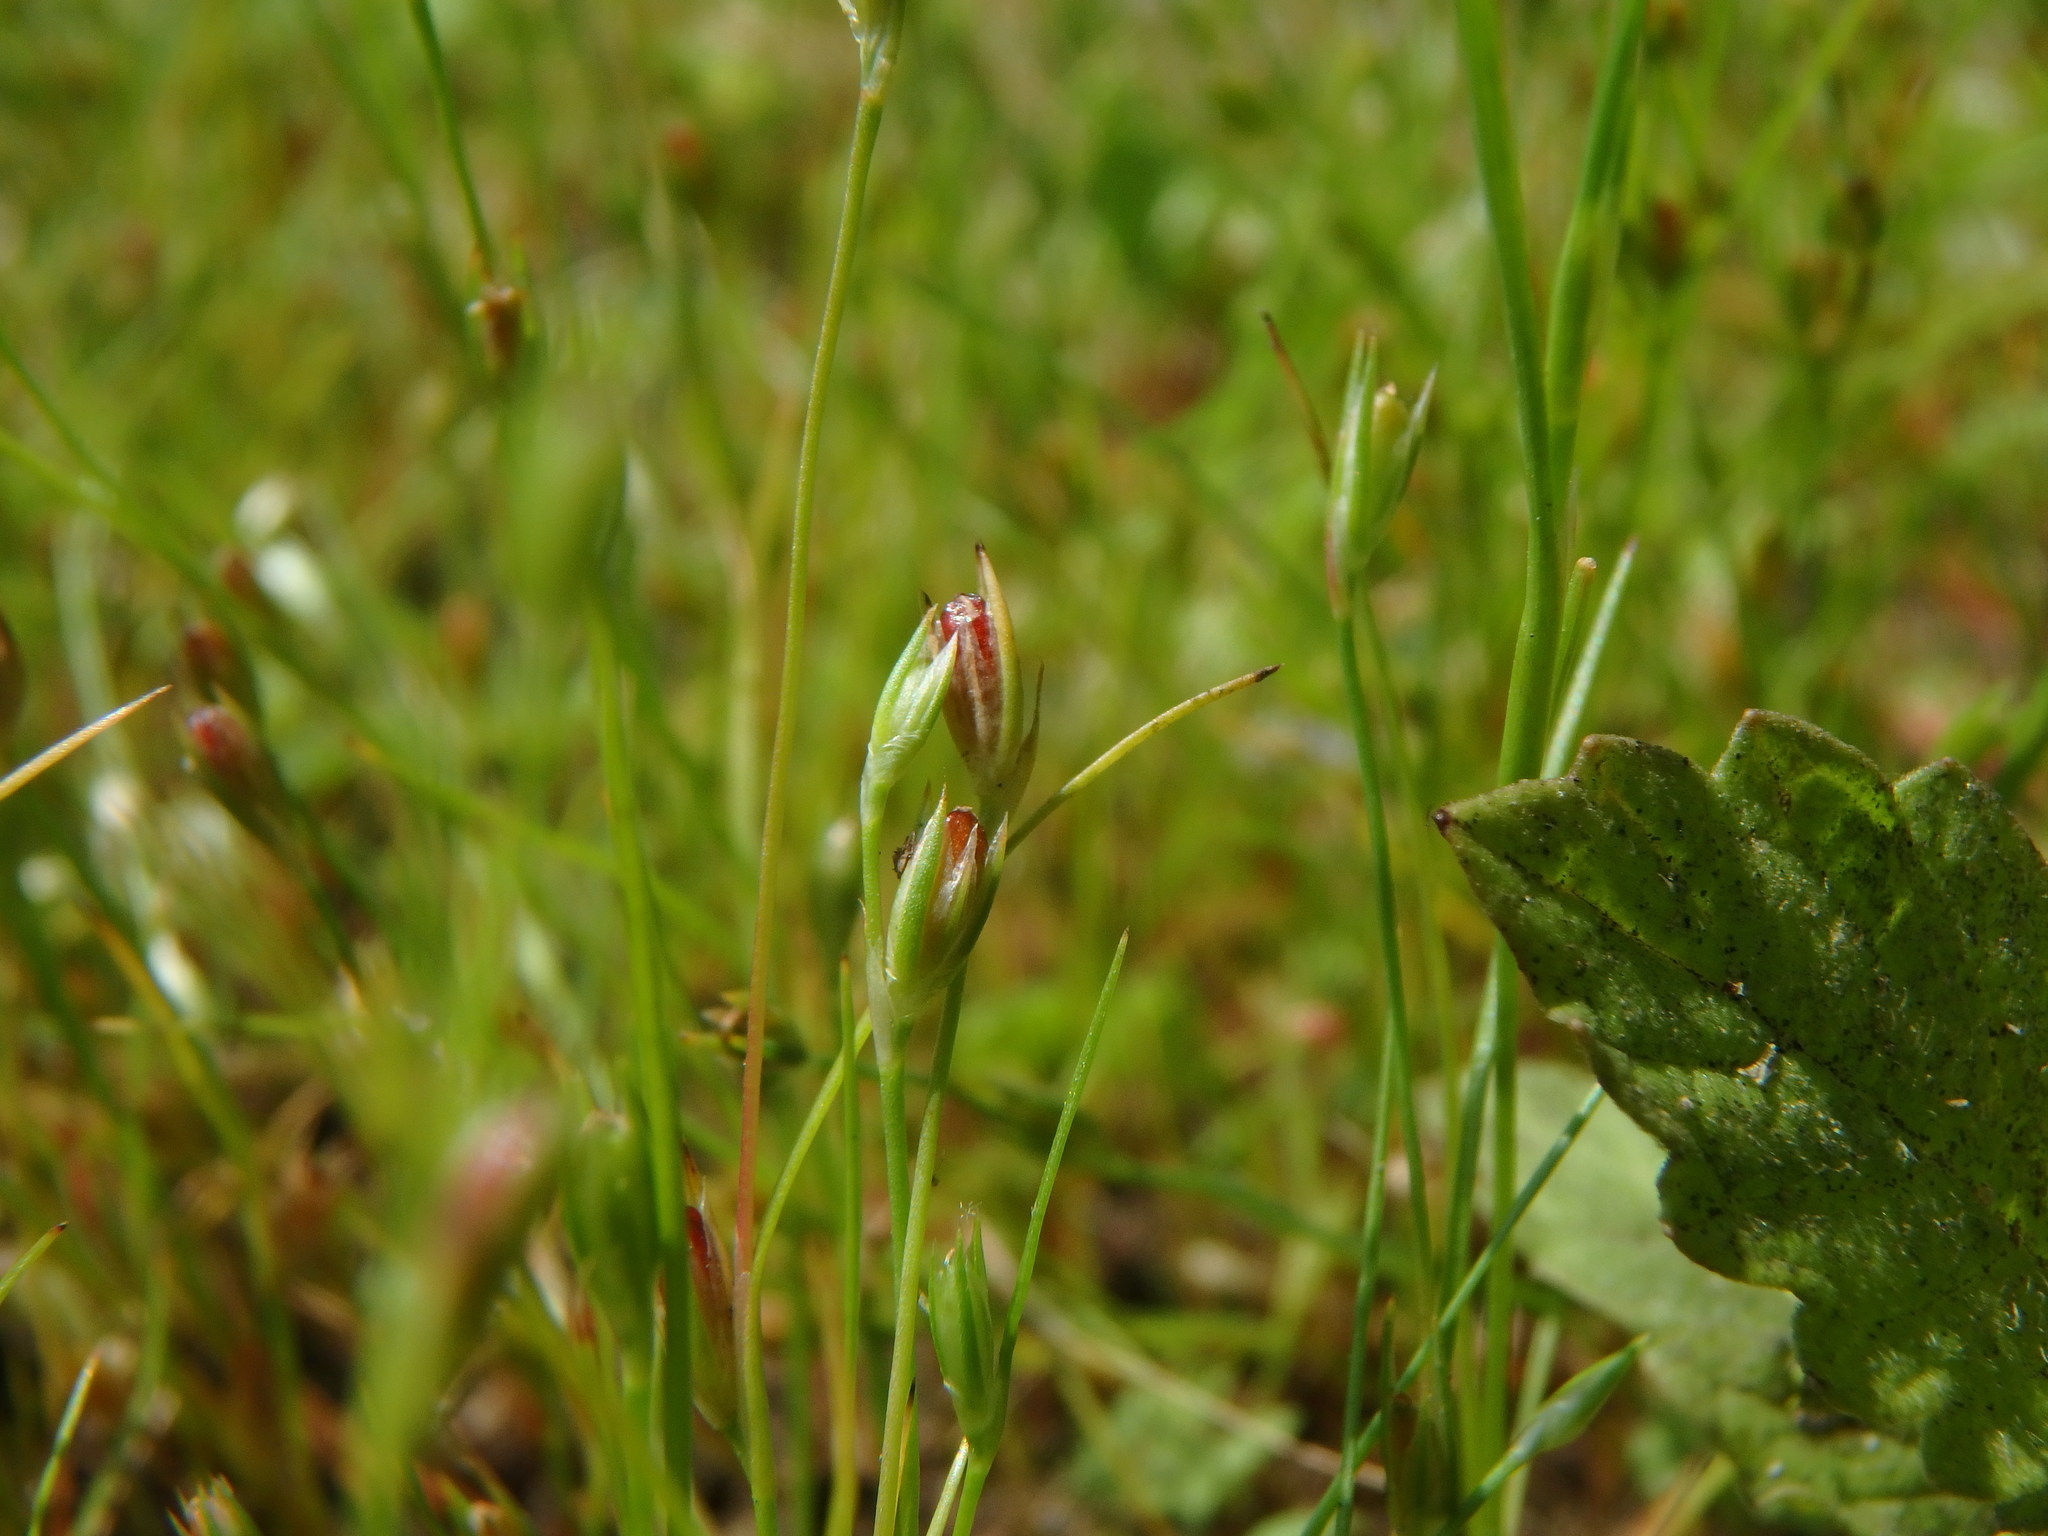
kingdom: Plantae
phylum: Tracheophyta
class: Liliopsida
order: Poales
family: Juncaceae
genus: Juncus
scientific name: Juncus bufonius
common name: Toad rush
